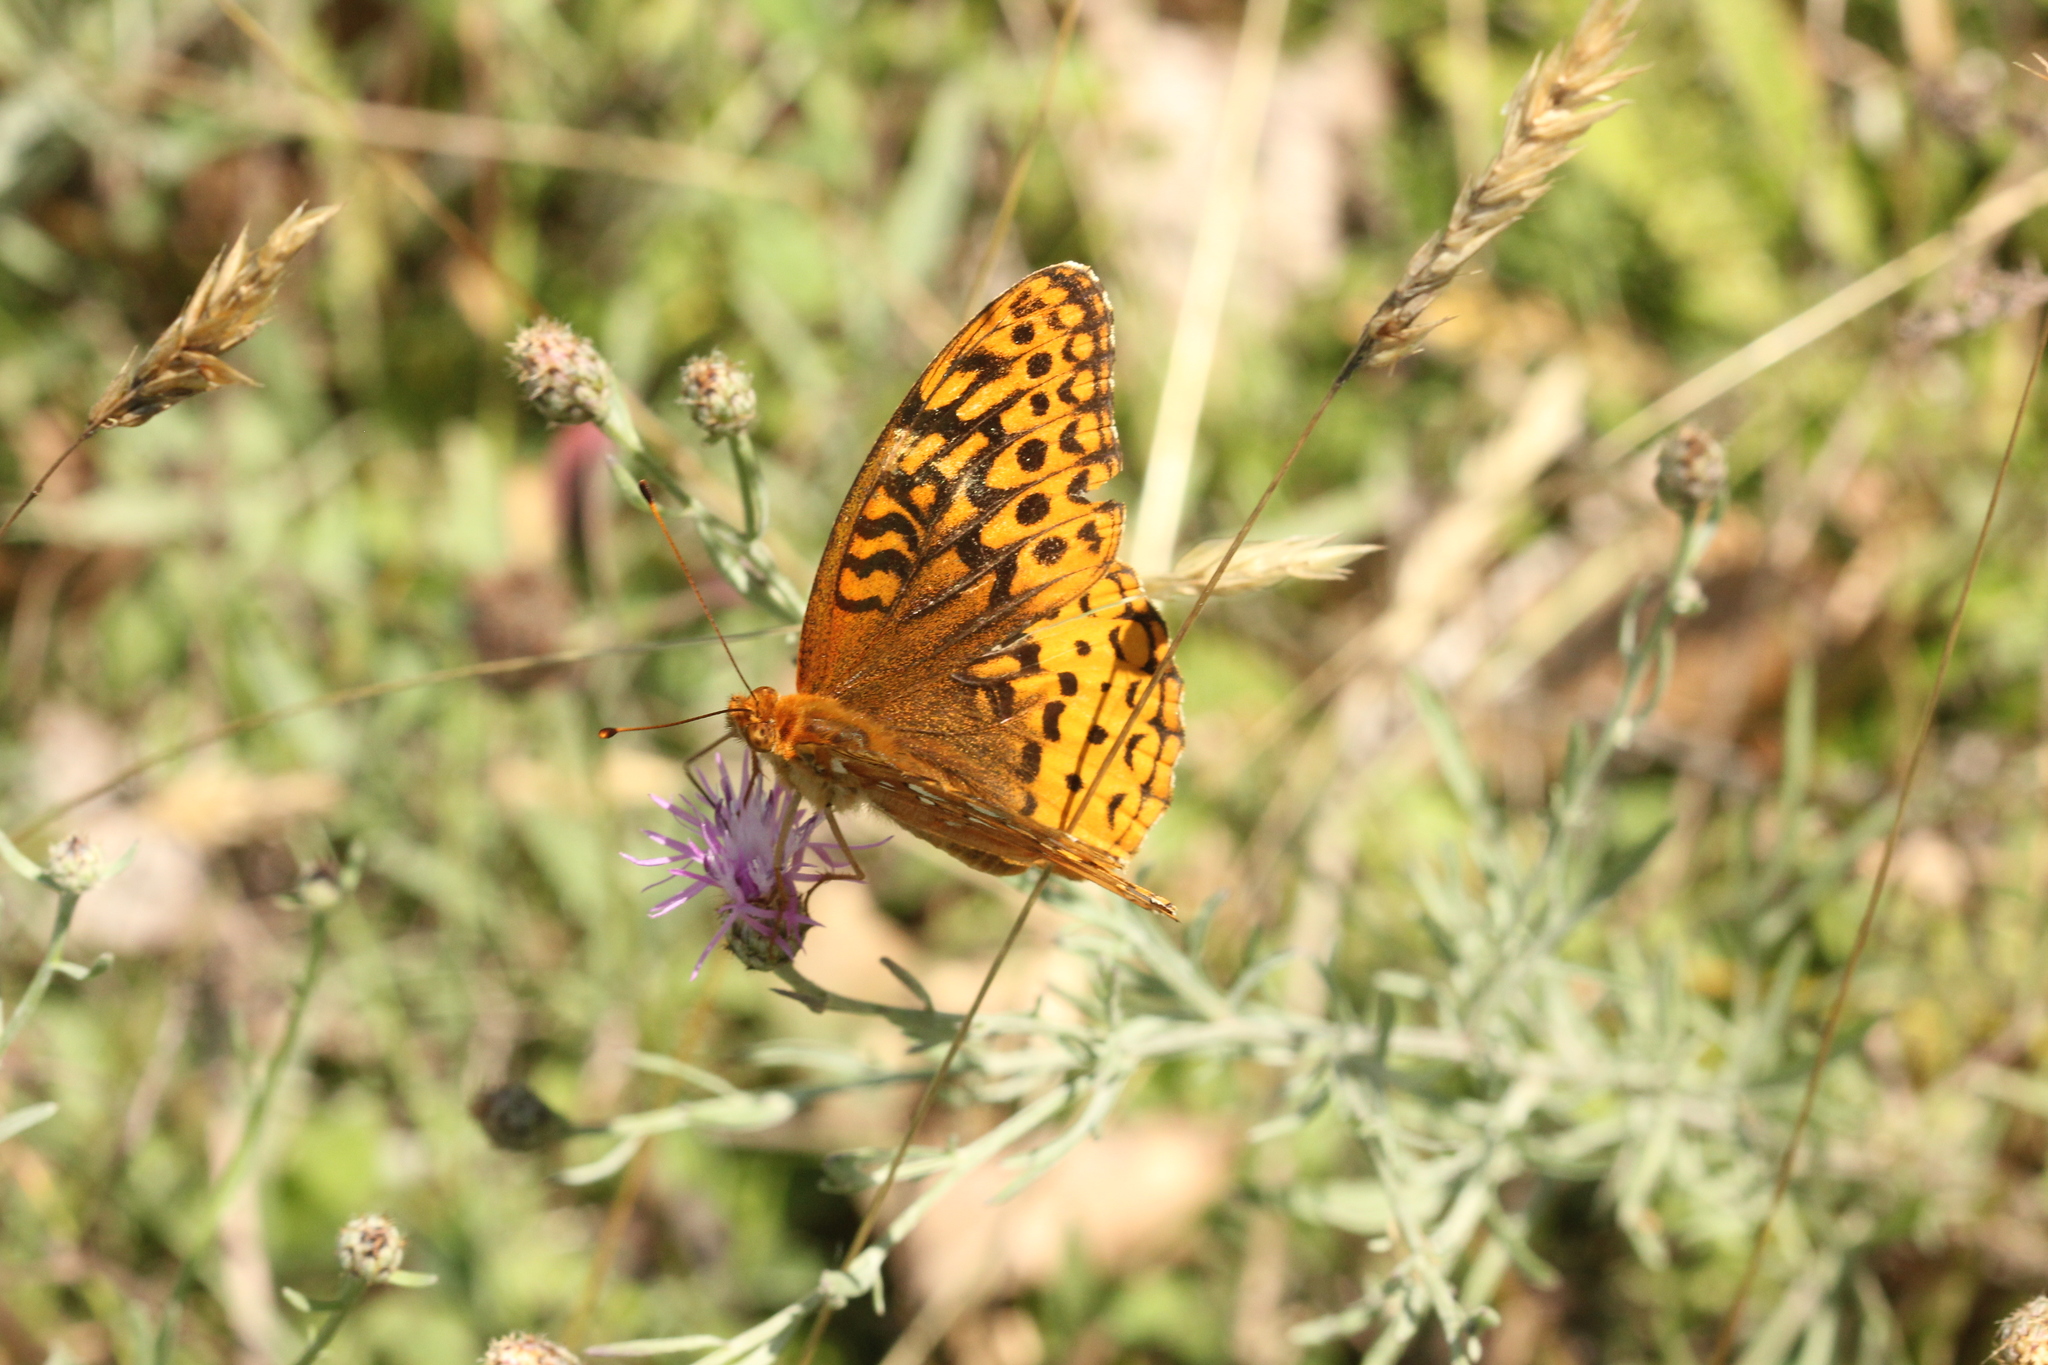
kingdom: Animalia
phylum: Arthropoda
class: Insecta
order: Lepidoptera
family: Nymphalidae
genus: Speyeria
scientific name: Speyeria cybele
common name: Great spangled fritillary
